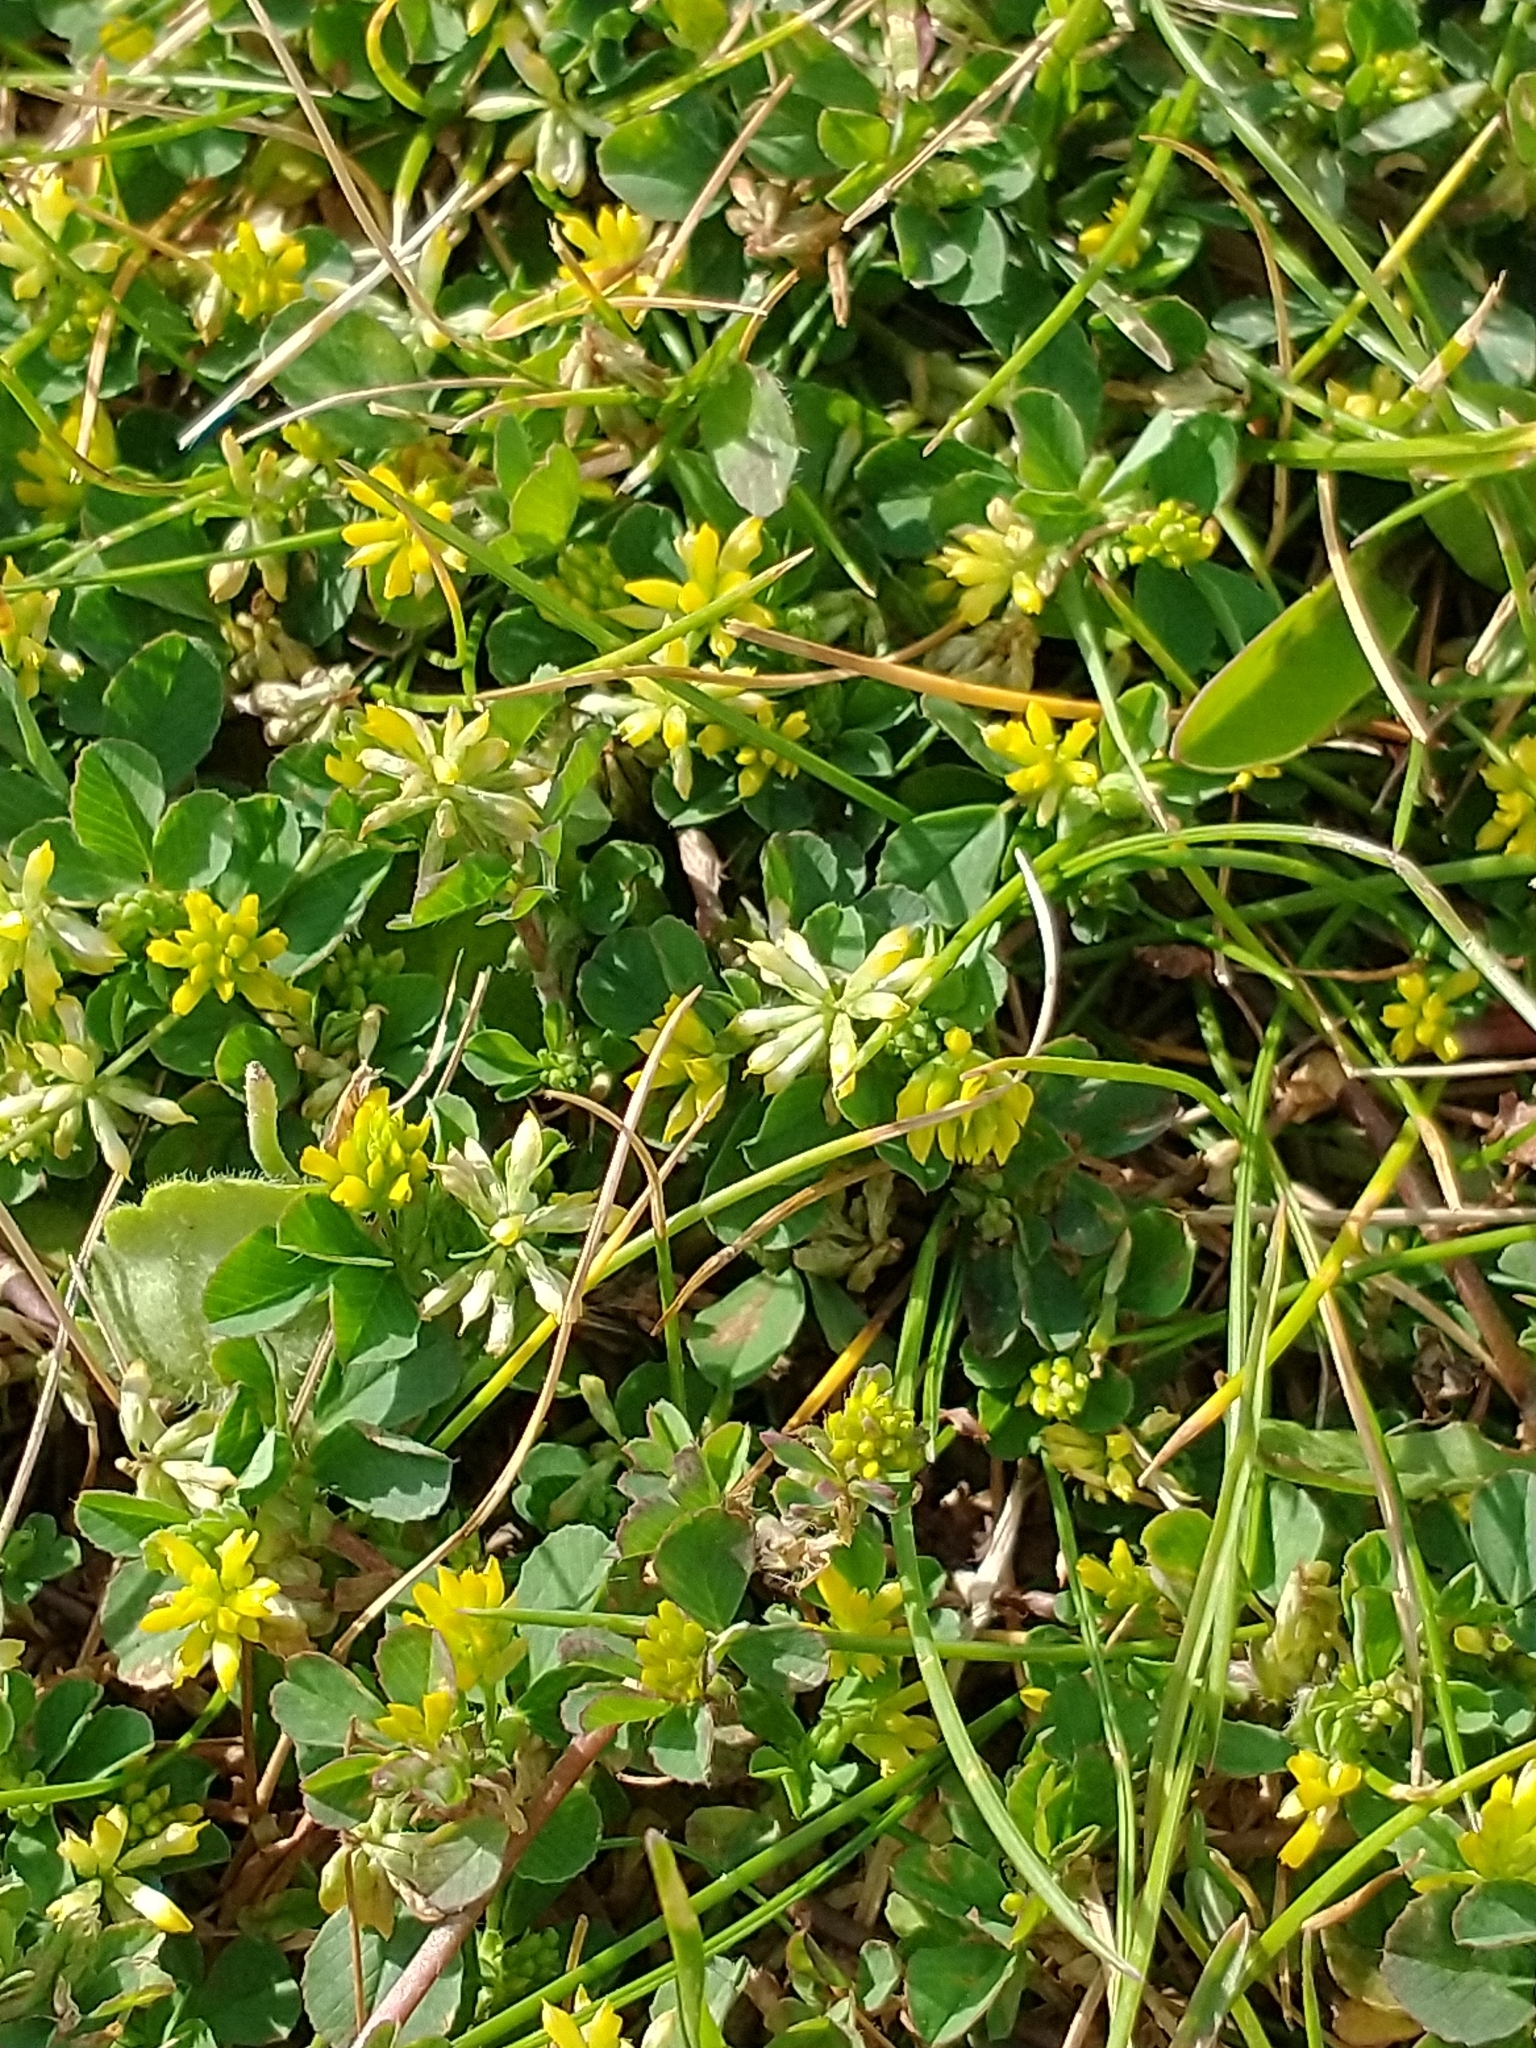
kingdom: Plantae
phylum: Tracheophyta
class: Magnoliopsida
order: Fabales
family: Fabaceae
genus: Trifolium
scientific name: Trifolium dubium
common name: Suckling clover
